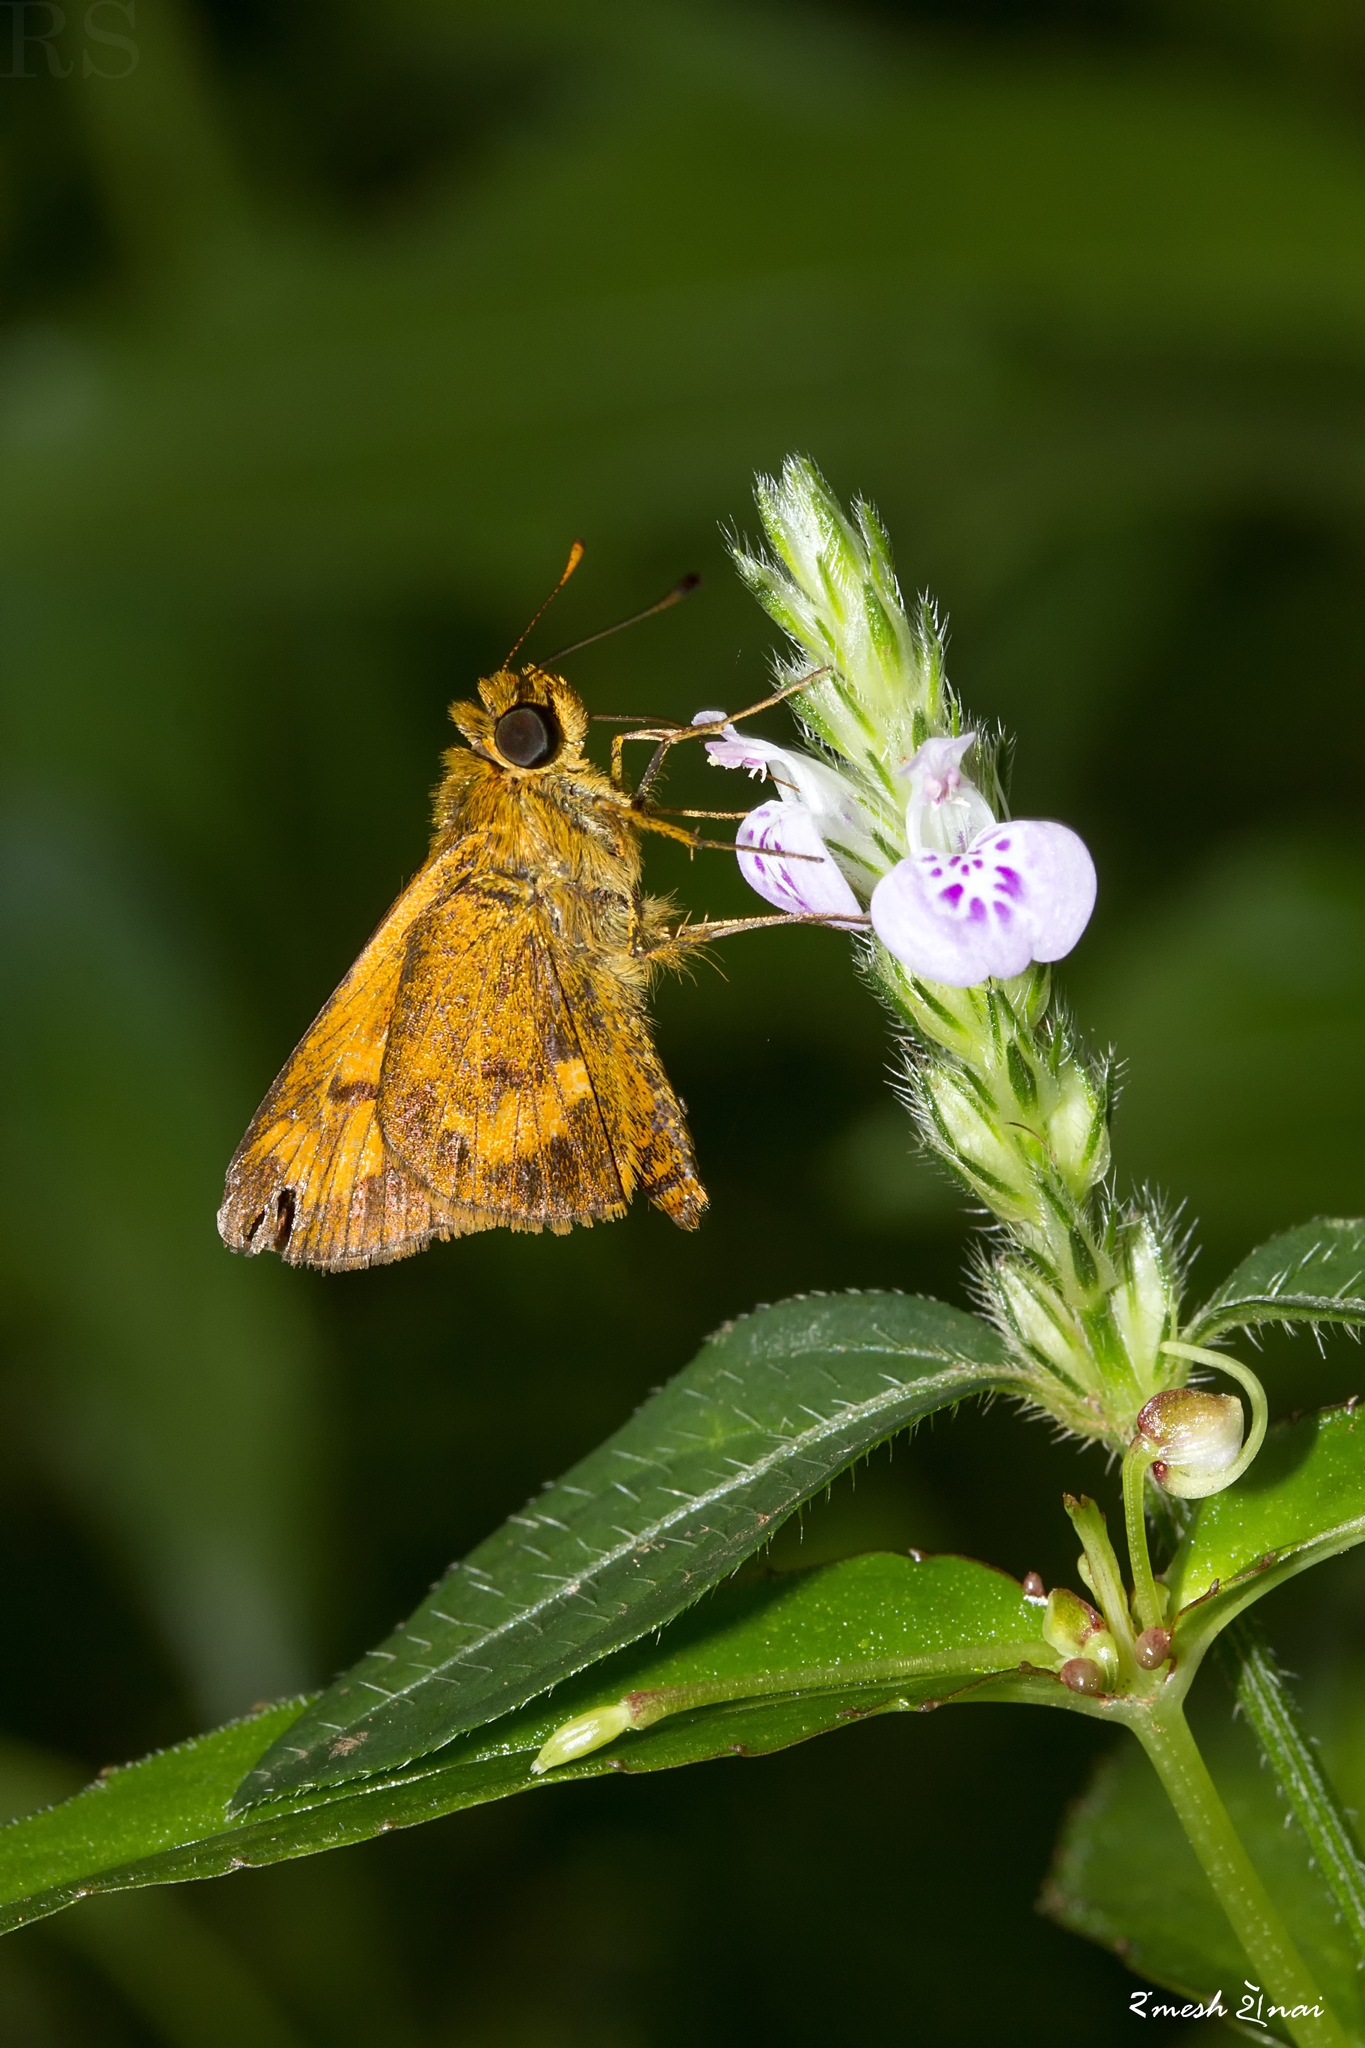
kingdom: Animalia
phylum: Arthropoda
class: Insecta
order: Lepidoptera
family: Hesperiidae
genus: Oriens
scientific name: Oriens goloides
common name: Smaller dartlet
